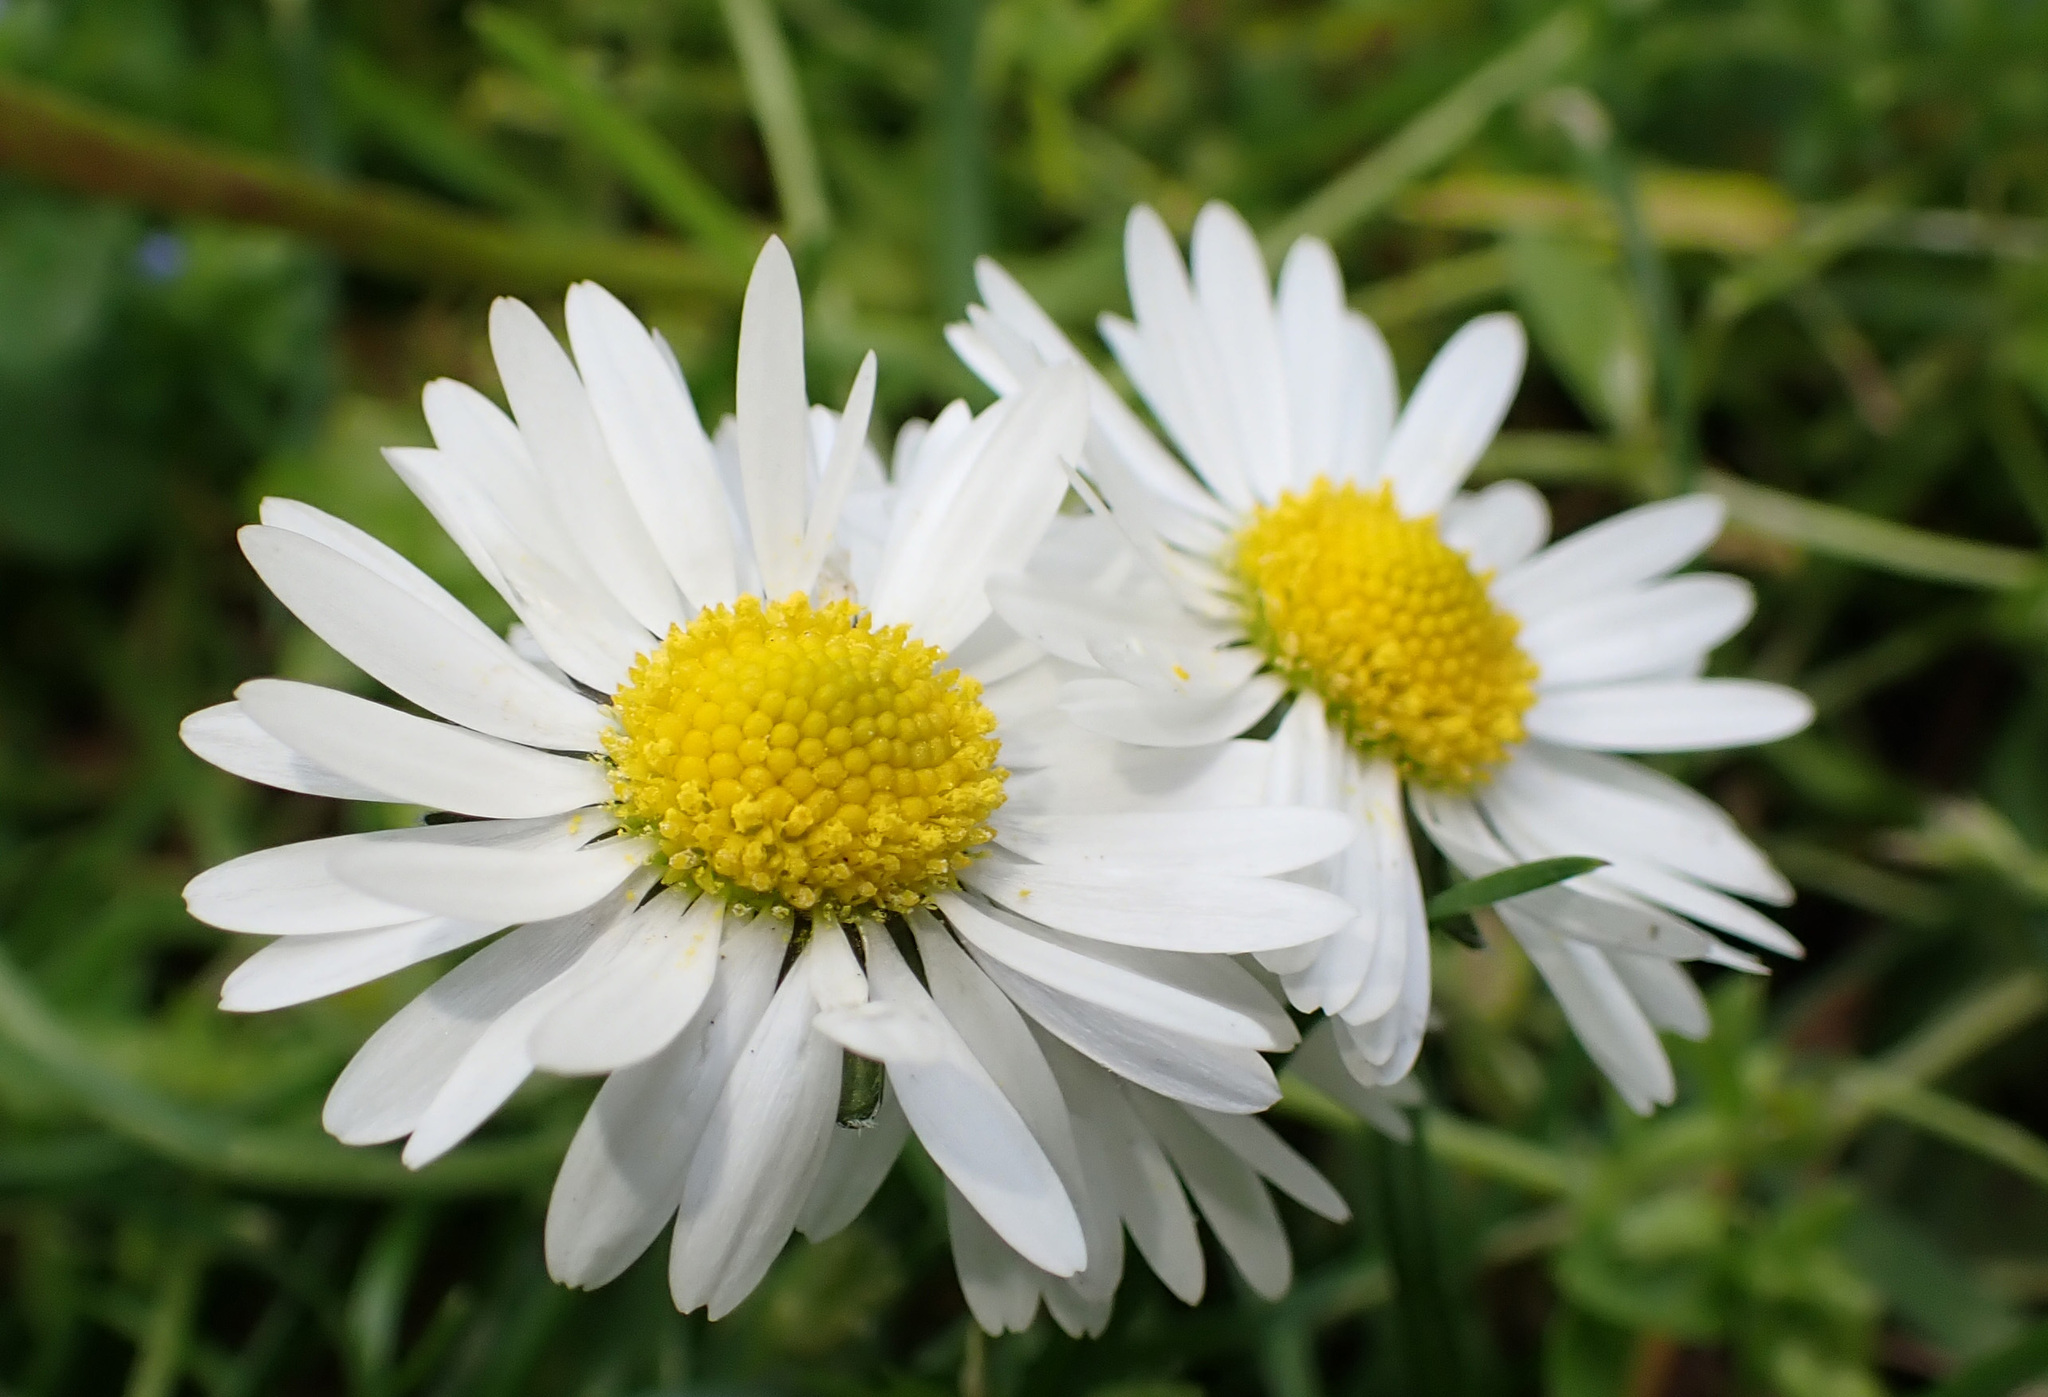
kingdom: Plantae
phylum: Tracheophyta
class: Magnoliopsida
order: Asterales
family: Asteraceae
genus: Bellis
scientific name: Bellis perennis
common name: Lawndaisy
